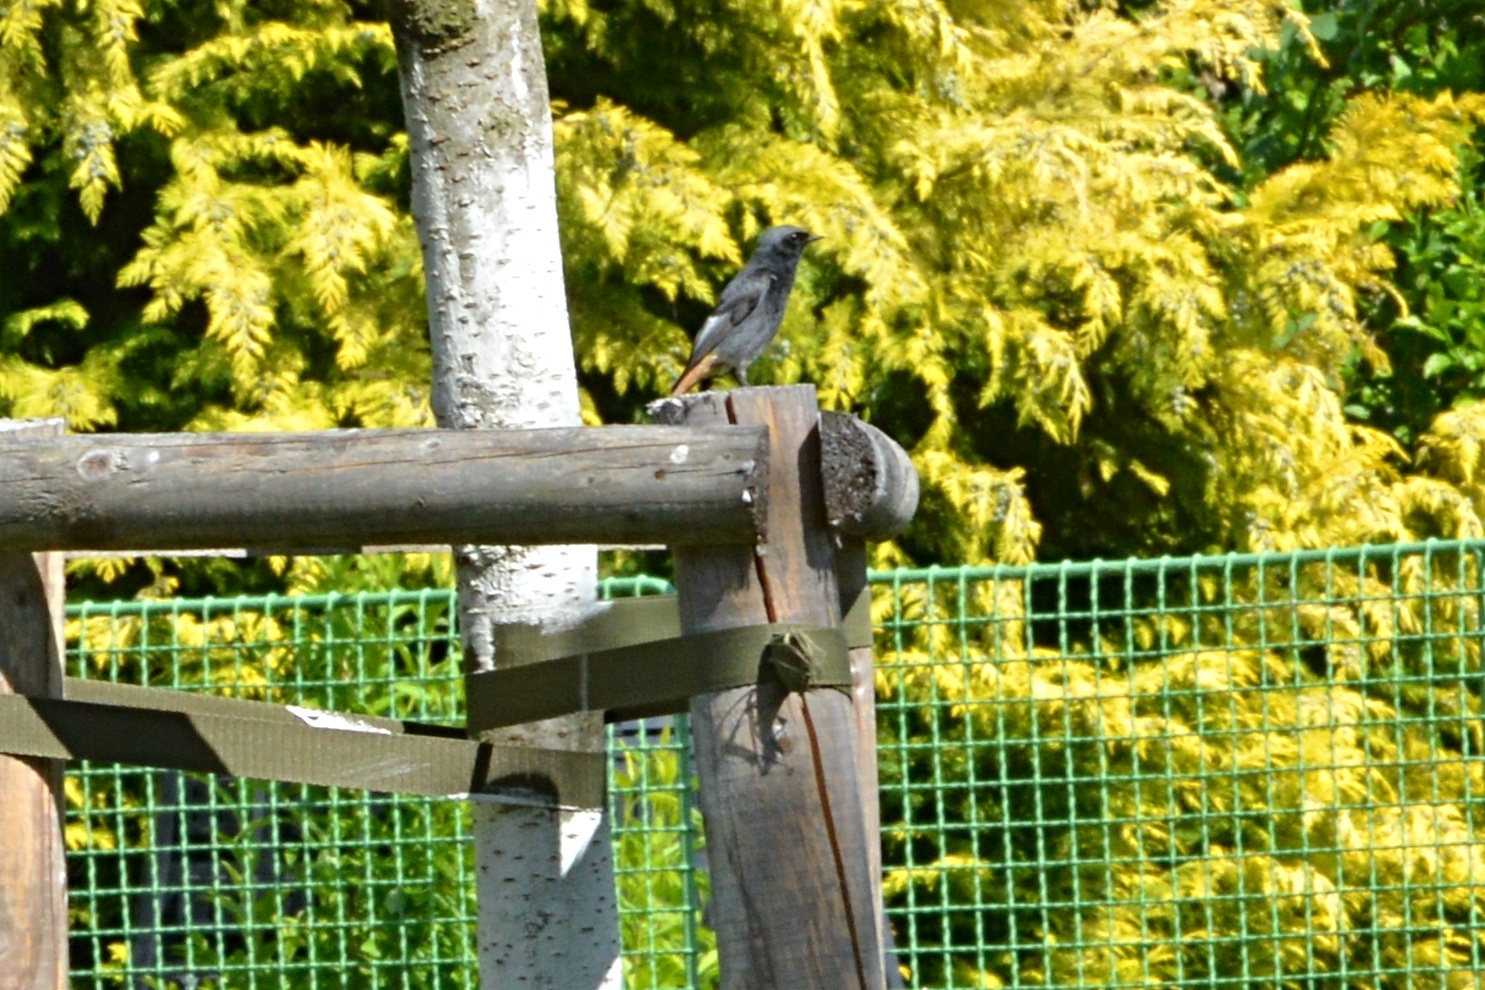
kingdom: Animalia
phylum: Chordata
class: Aves
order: Passeriformes
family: Muscicapidae
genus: Phoenicurus
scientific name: Phoenicurus ochruros
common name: Black redstart
